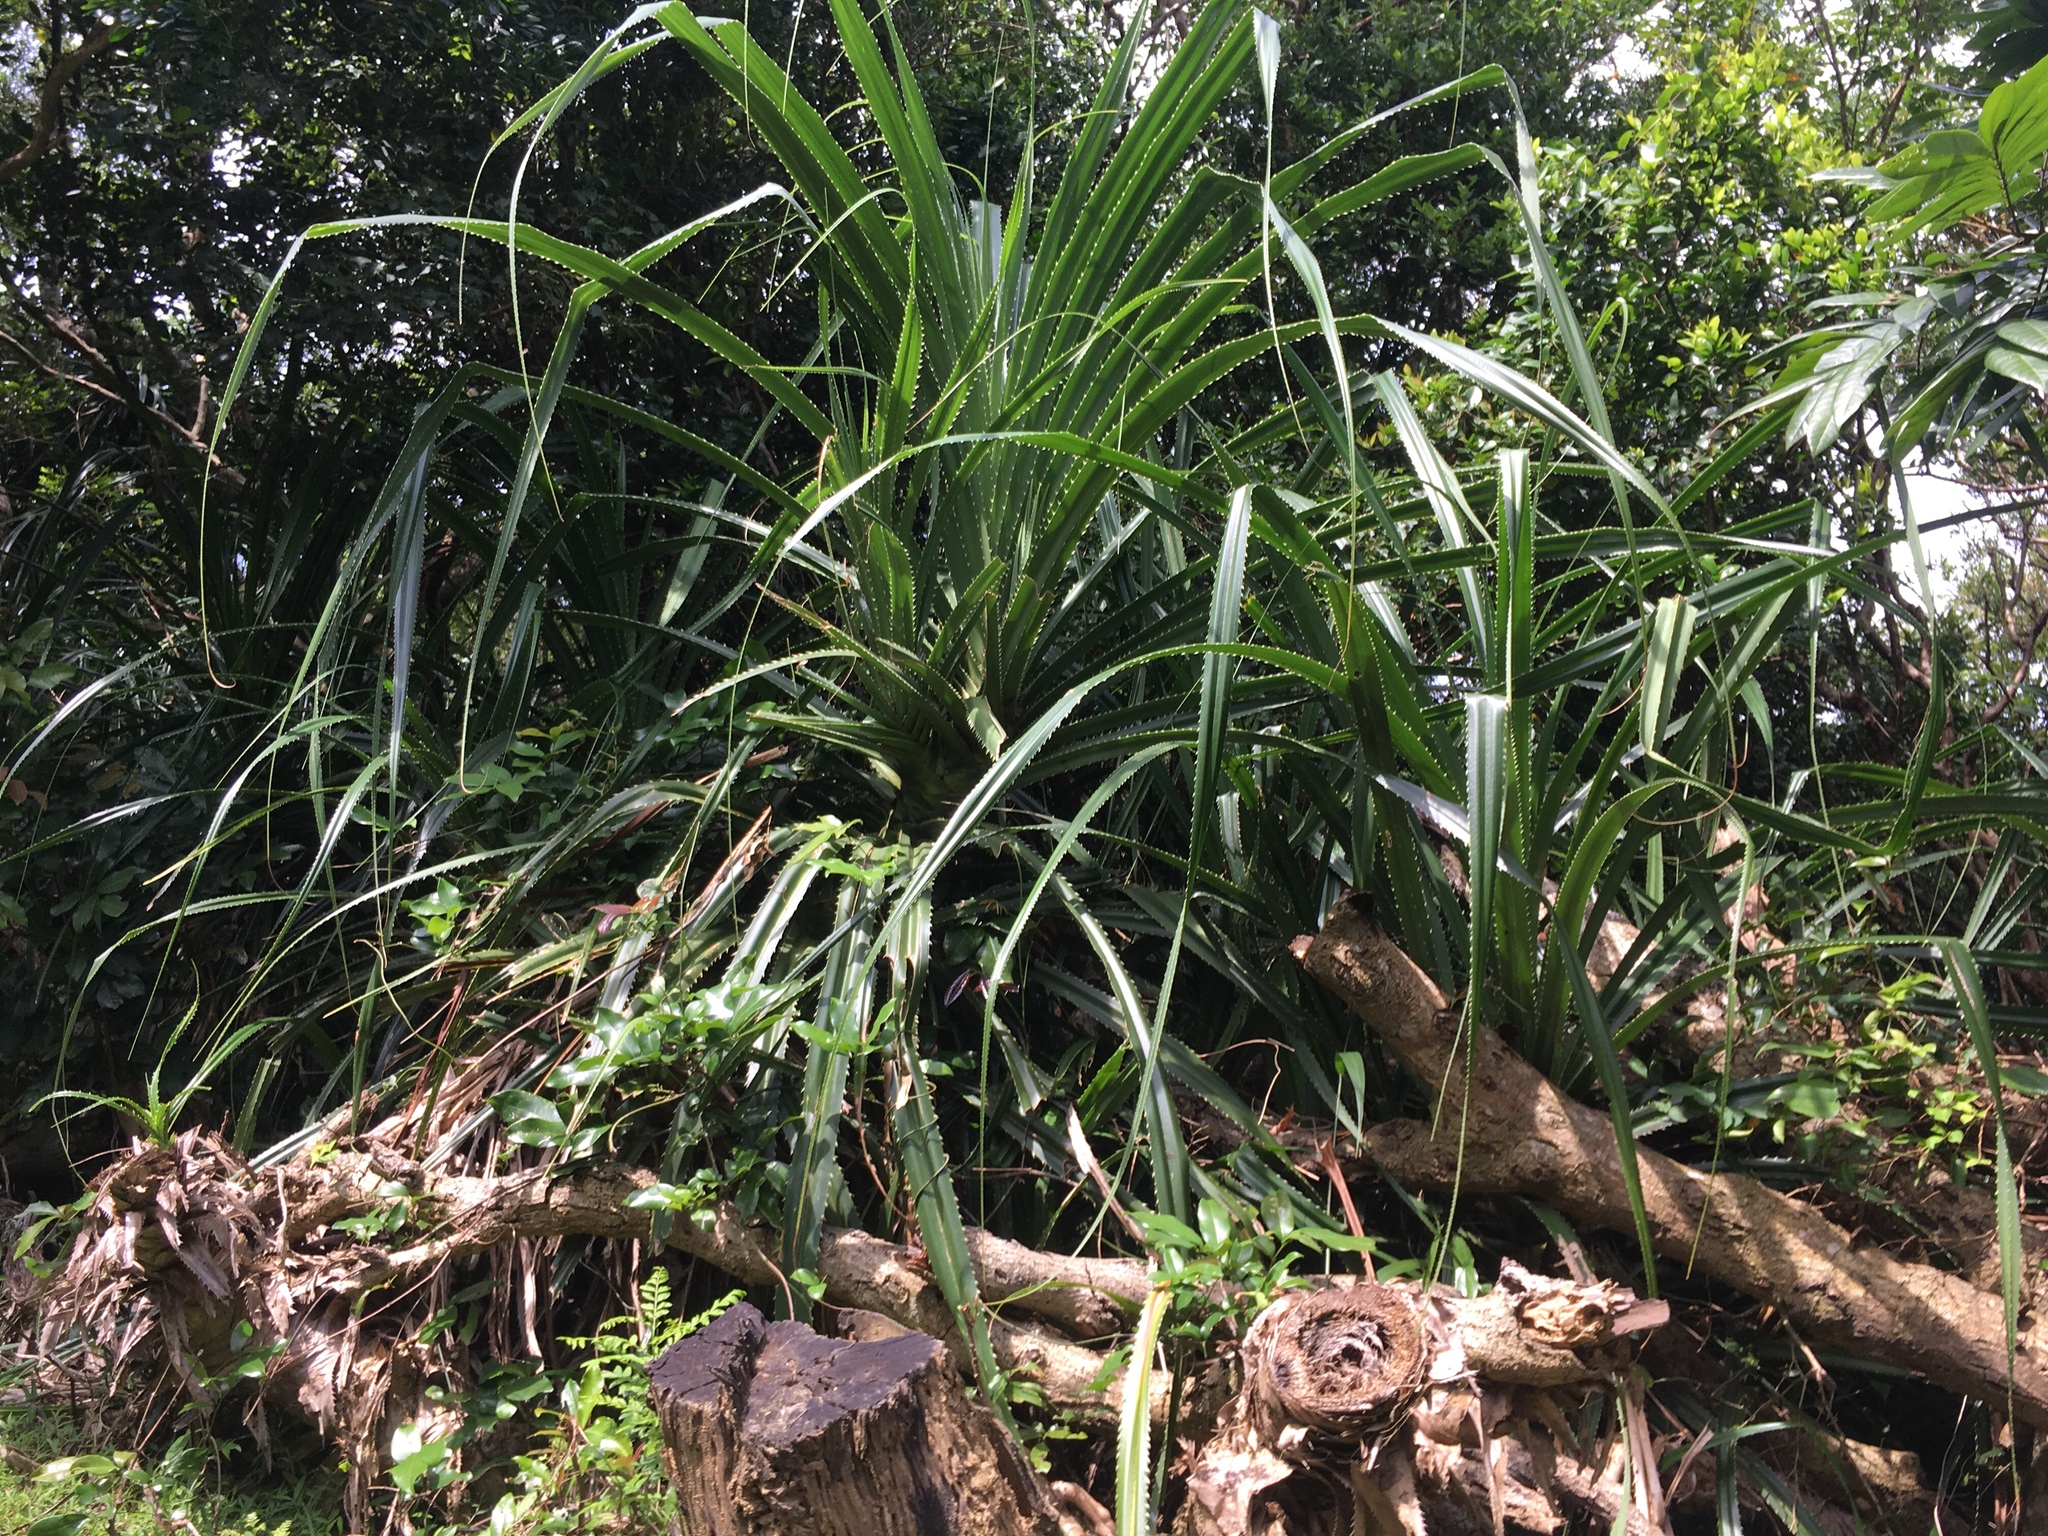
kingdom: Plantae
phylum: Tracheophyta
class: Liliopsida
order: Pandanales
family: Pandanaceae
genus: Pandanus
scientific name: Pandanus odorifer
